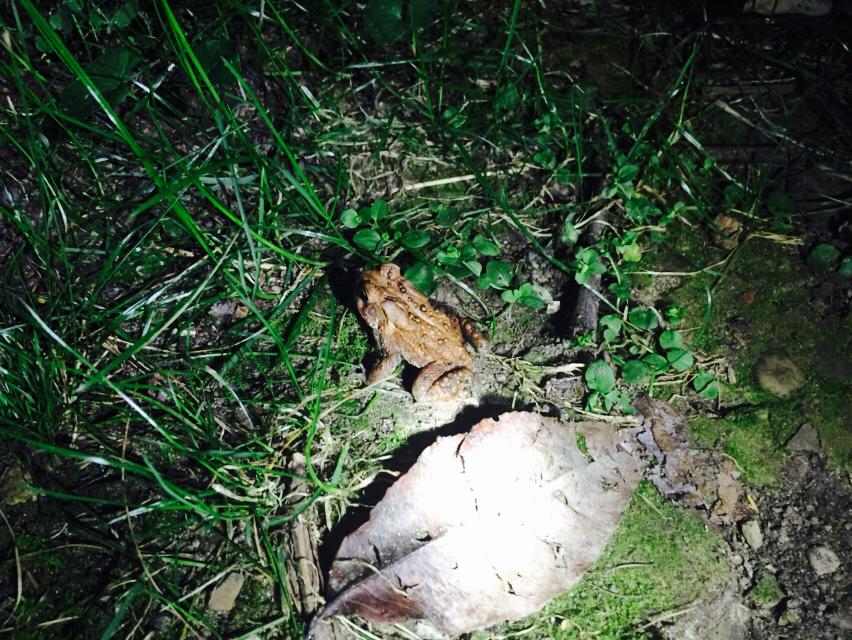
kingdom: Animalia
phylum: Chordata
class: Amphibia
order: Anura
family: Bufonidae
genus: Anaxyrus
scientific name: Anaxyrus americanus
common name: American toad
